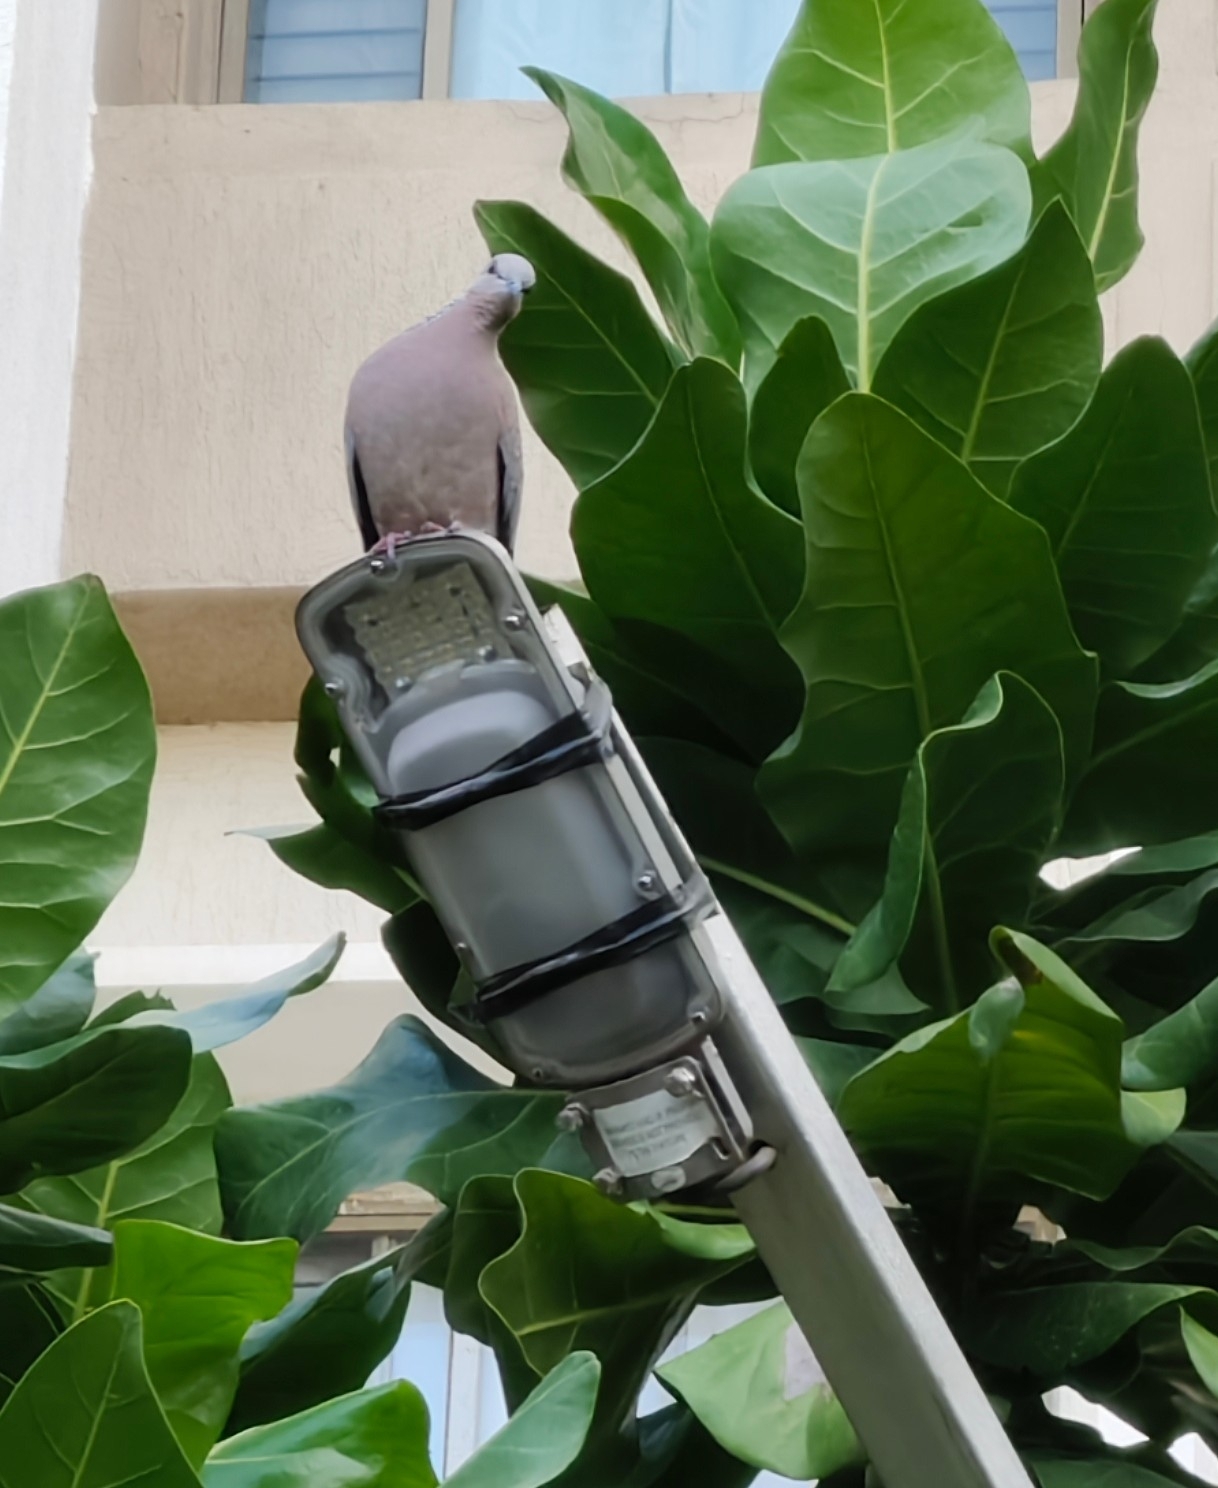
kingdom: Animalia
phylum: Chordata
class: Aves
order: Columbiformes
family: Columbidae
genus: Spilopelia
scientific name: Spilopelia chinensis
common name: Spotted dove
